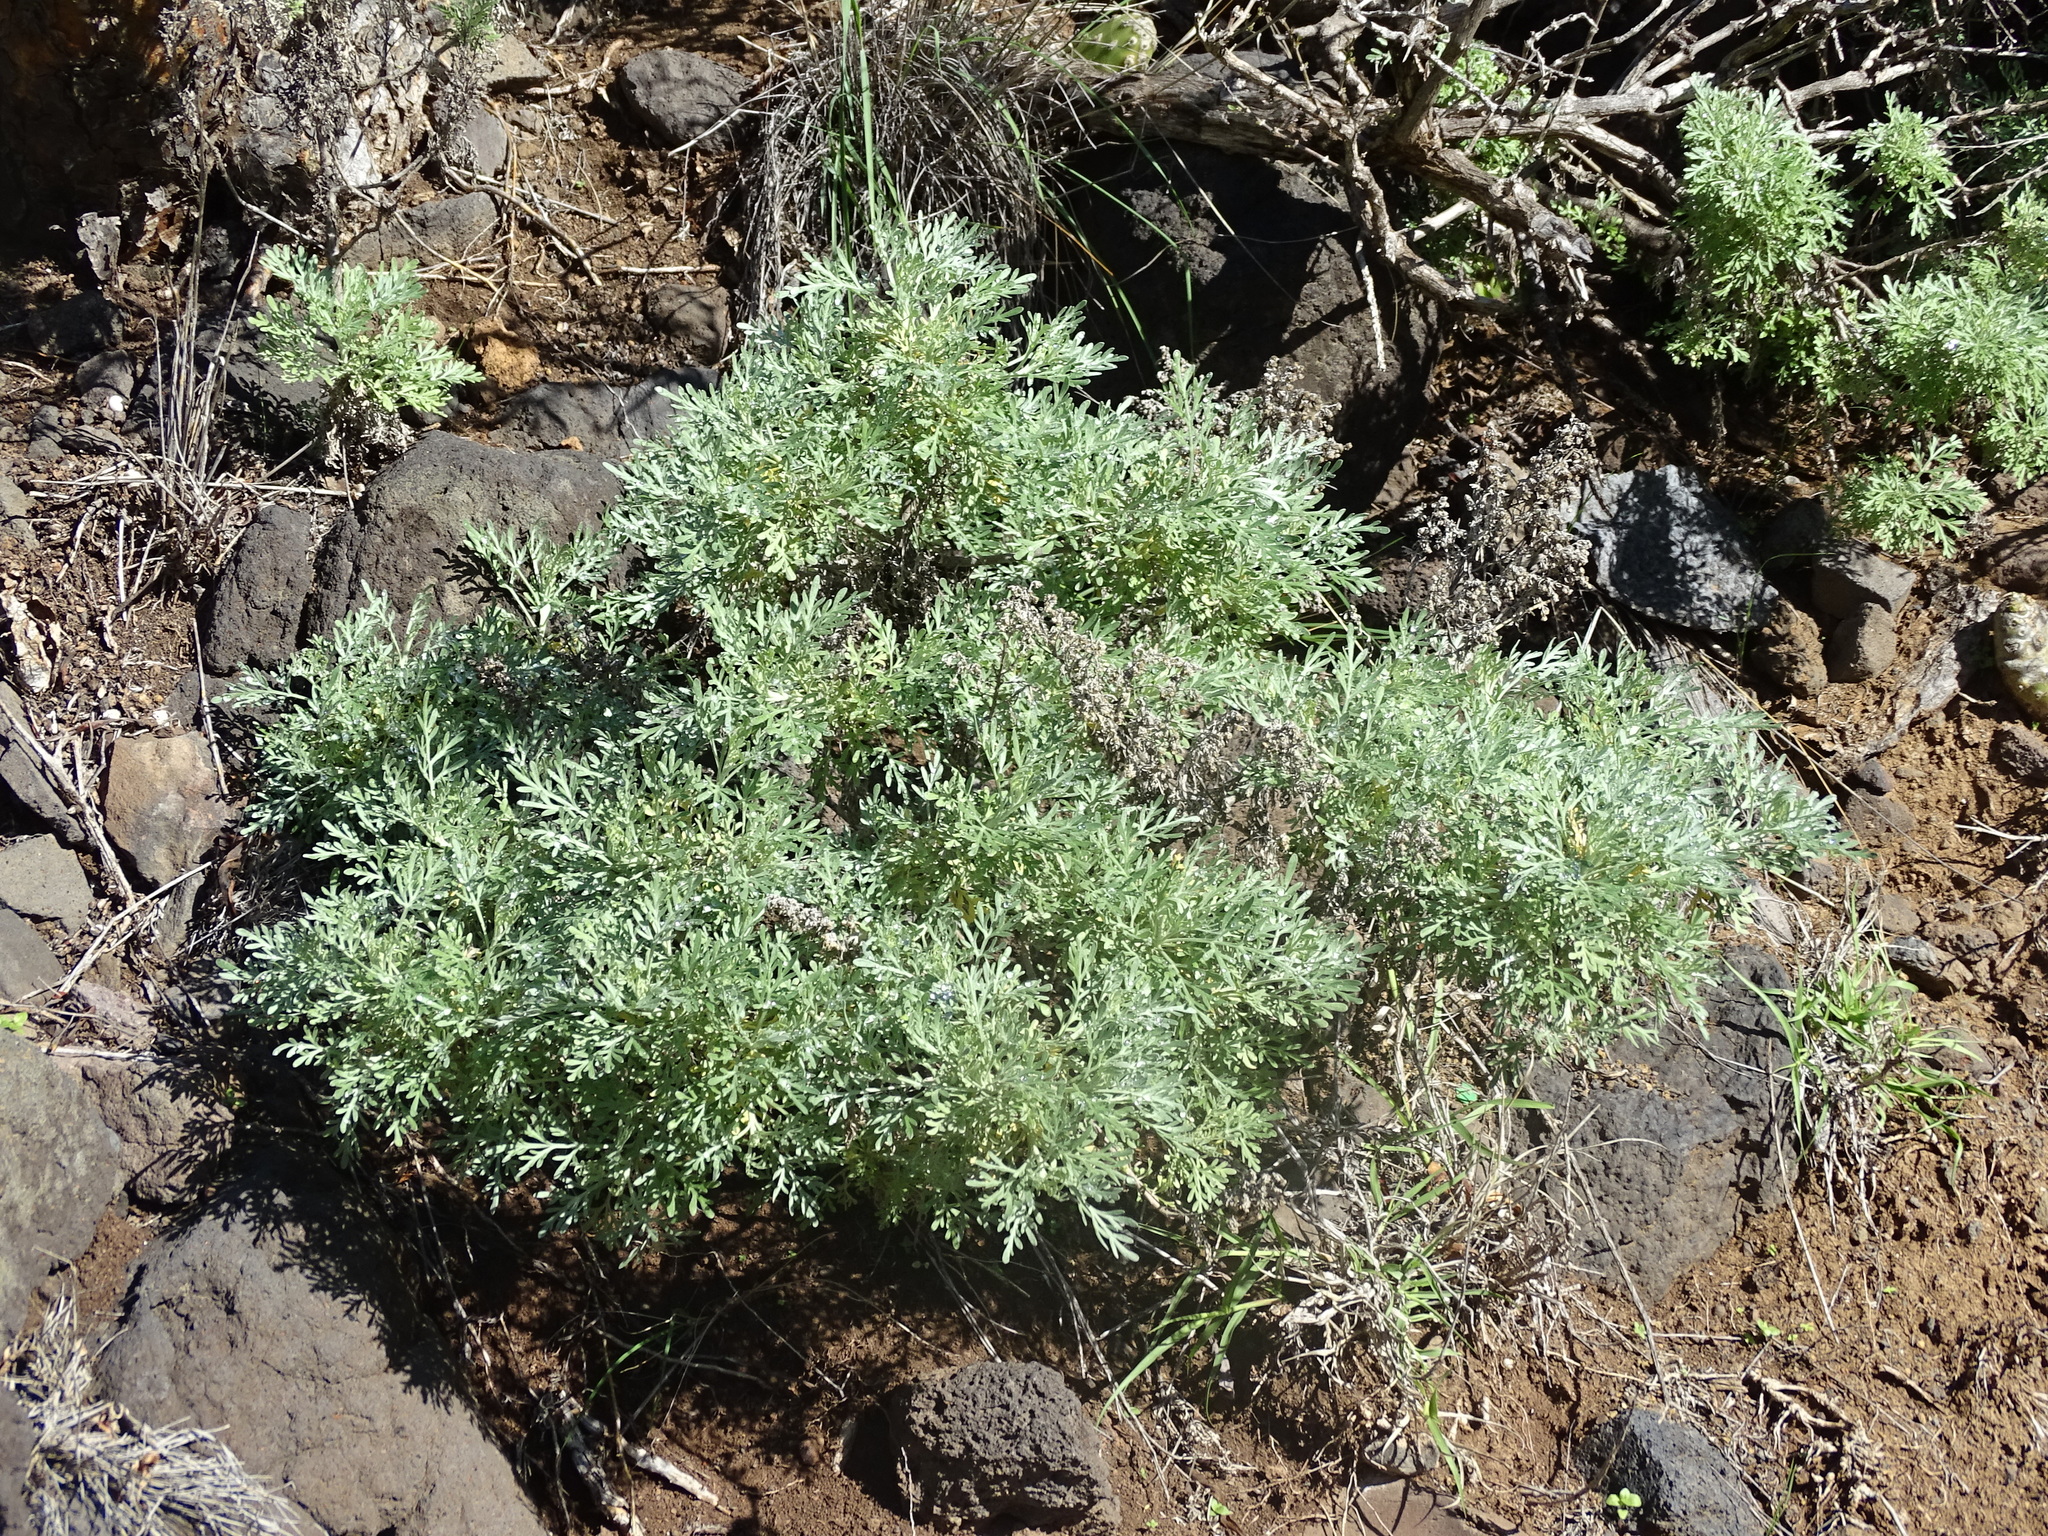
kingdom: Plantae
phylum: Tracheophyta
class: Magnoliopsida
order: Asterales
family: Asteraceae
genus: Artemisia
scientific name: Artemisia thuscula
